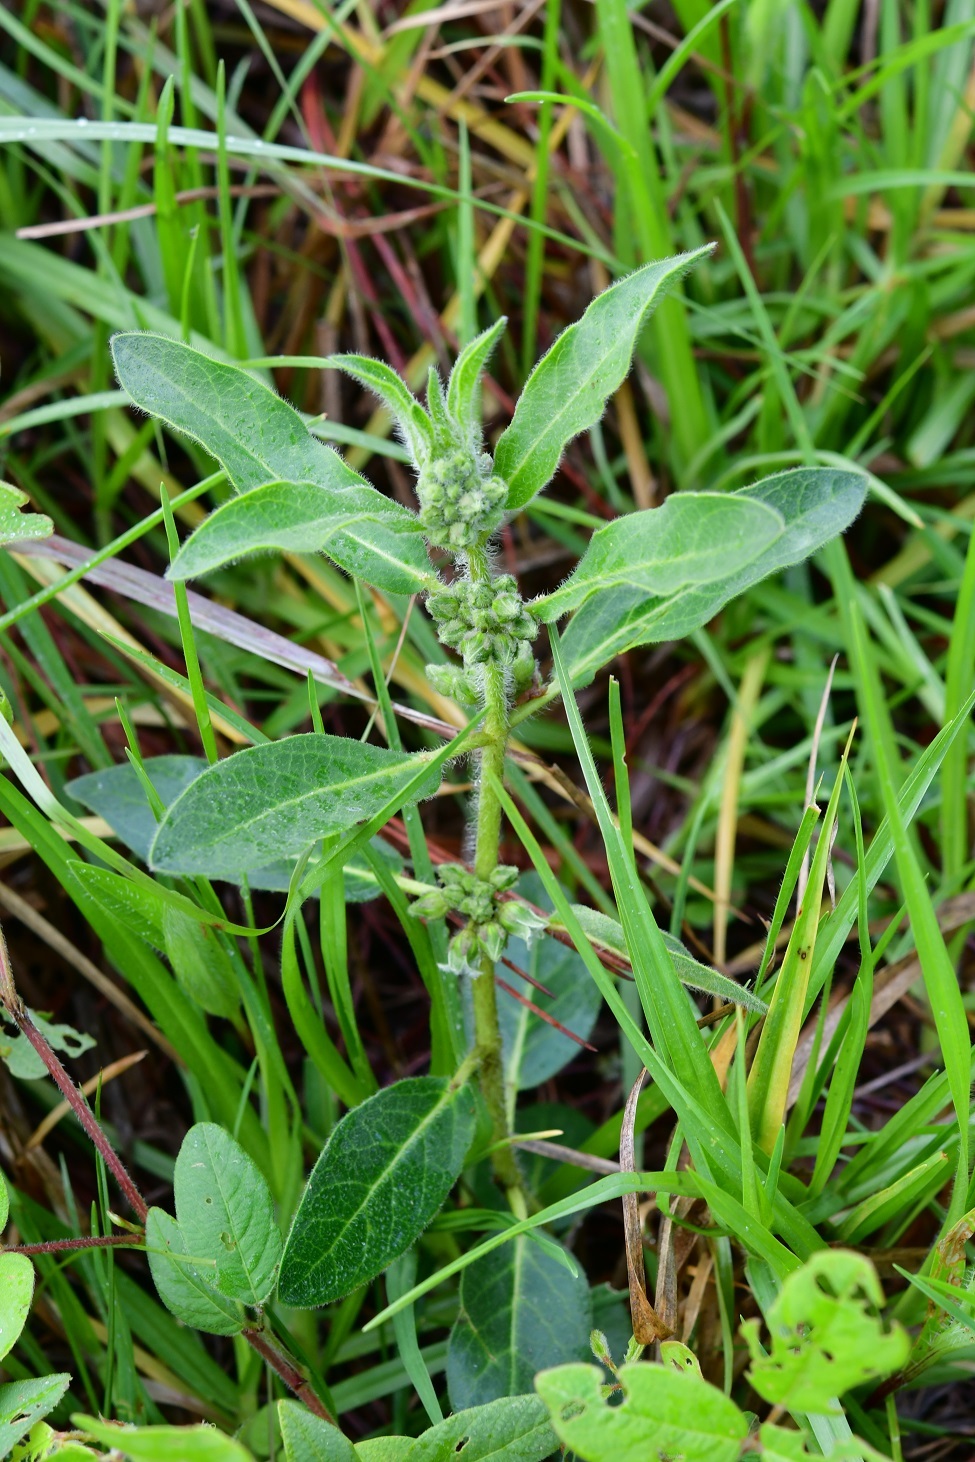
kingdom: Plantae
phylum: Tracheophyta
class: Magnoliopsida
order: Gentianales
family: Apocynaceae
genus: Pherotrichis
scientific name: Pherotrichis villosa
